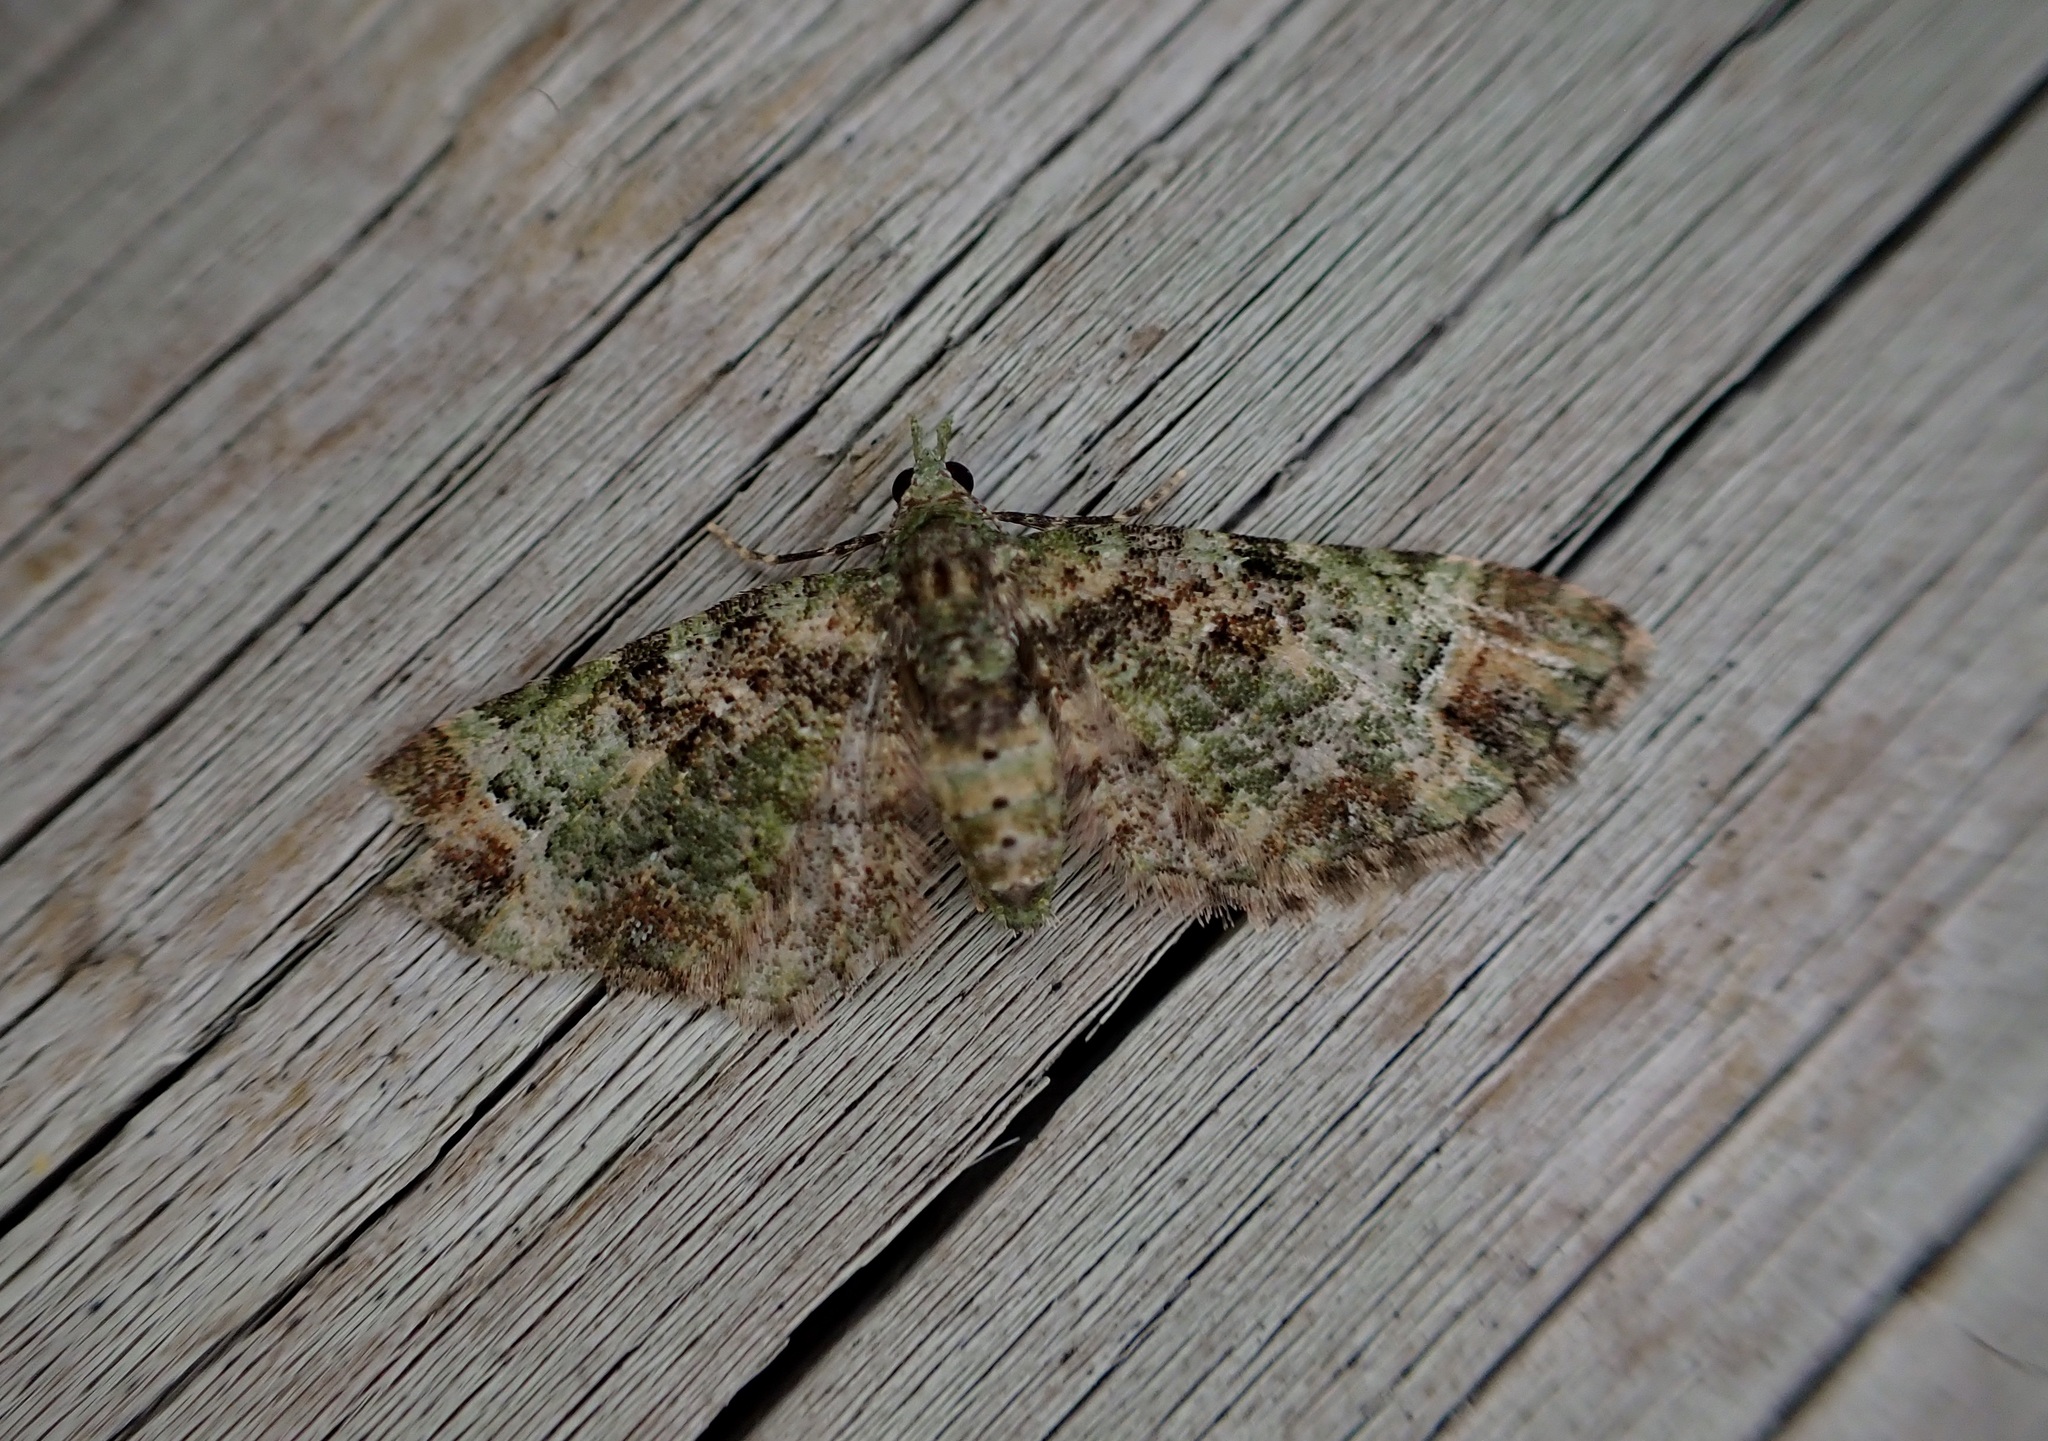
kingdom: Animalia
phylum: Arthropoda
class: Insecta
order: Lepidoptera
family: Geometridae
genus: Pasiphila
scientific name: Pasiphila sandycias
